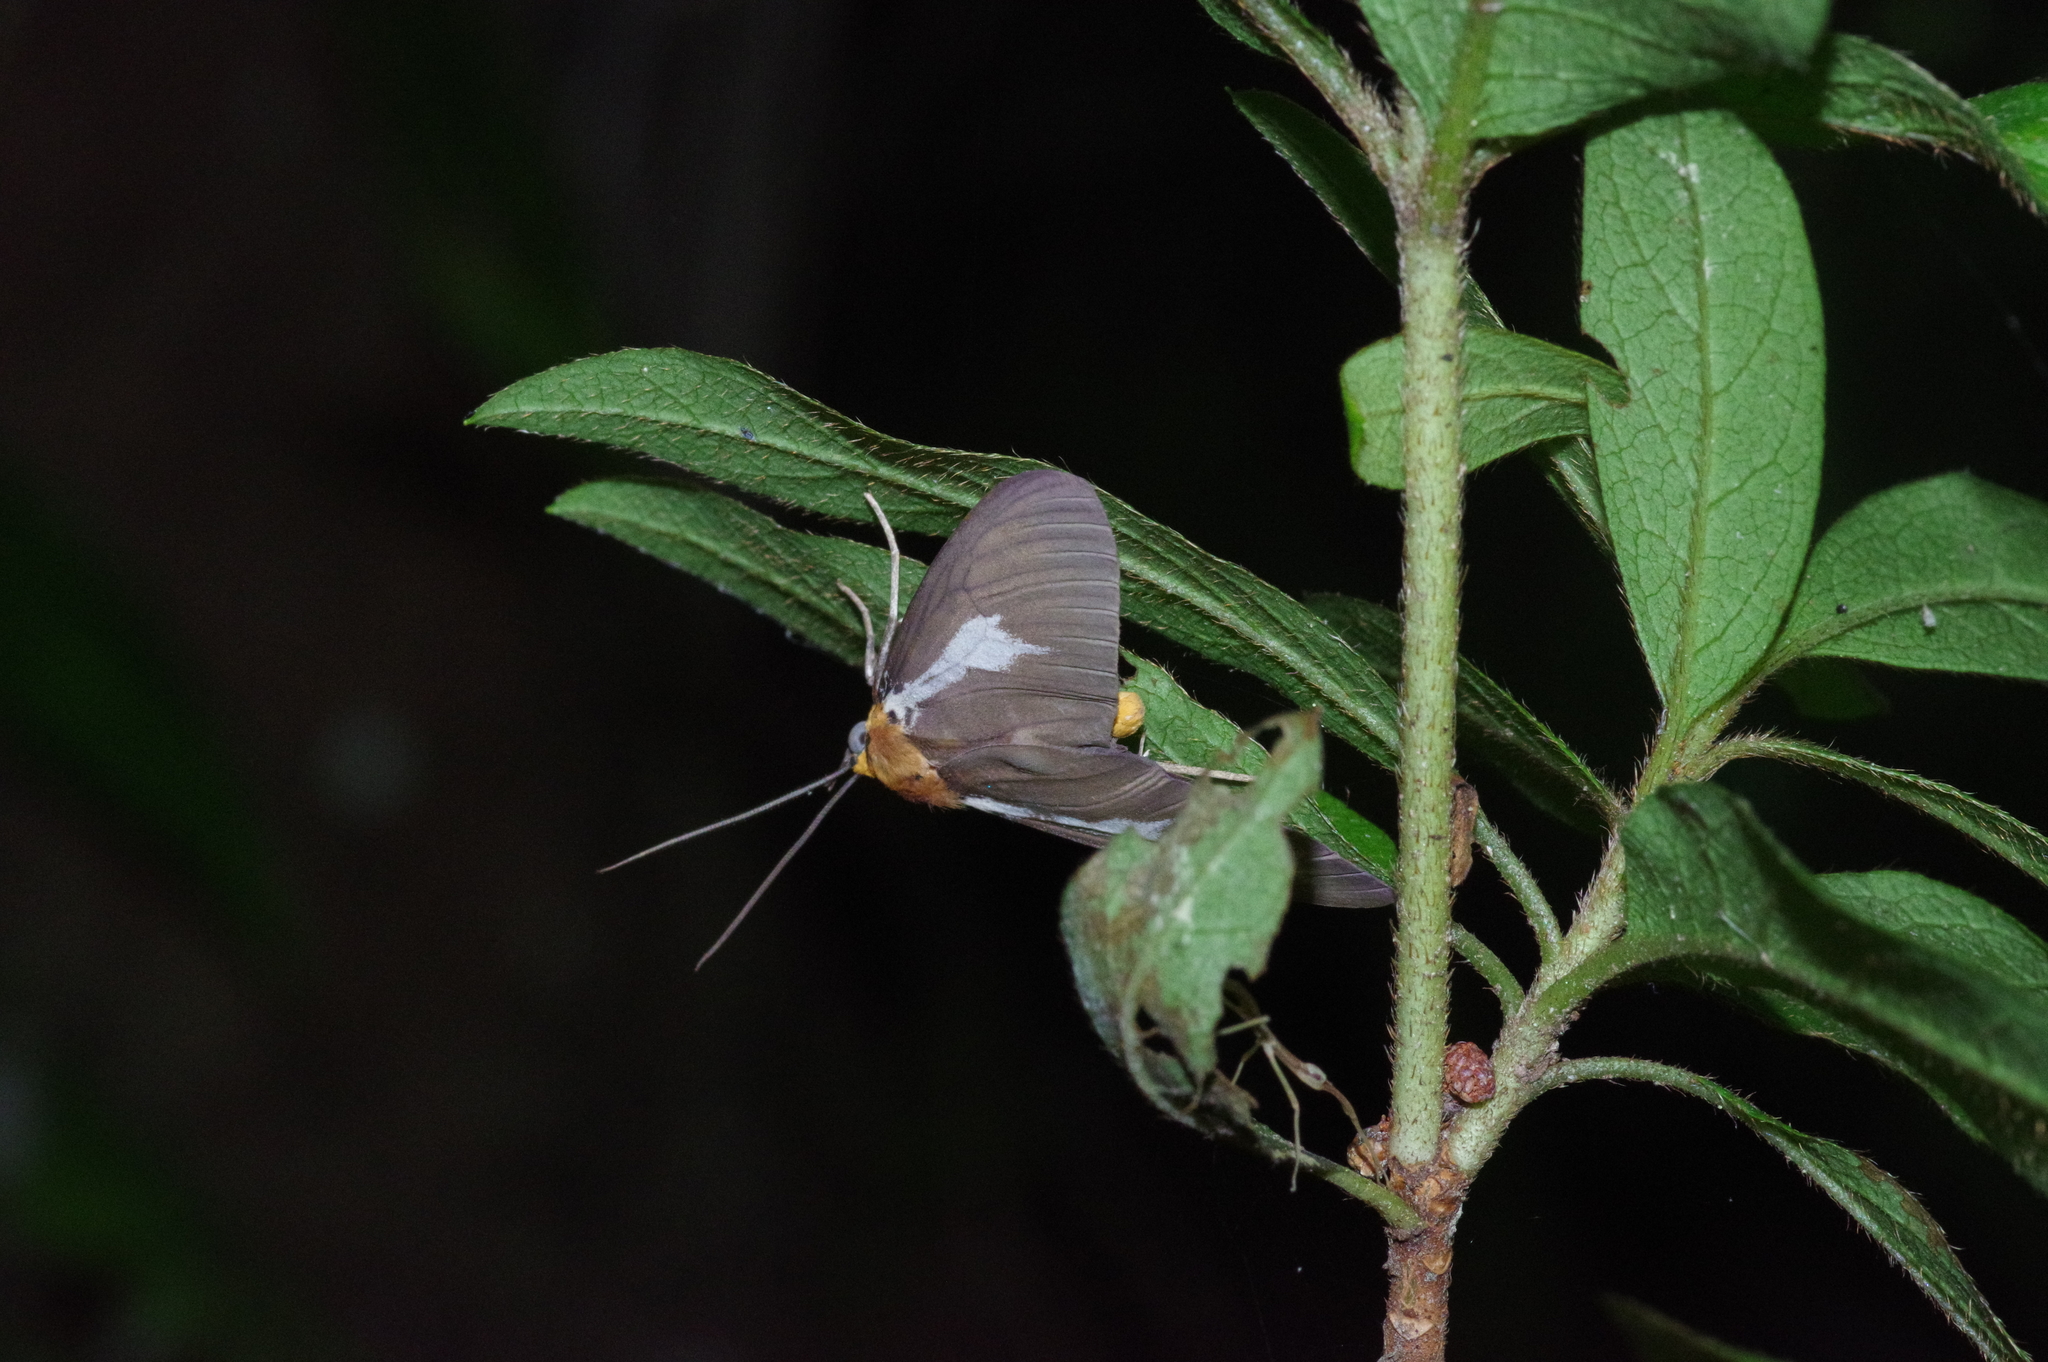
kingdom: Animalia
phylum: Arthropoda
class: Insecta
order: Lepidoptera
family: Erebidae
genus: Asota
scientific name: Asota heliconia
